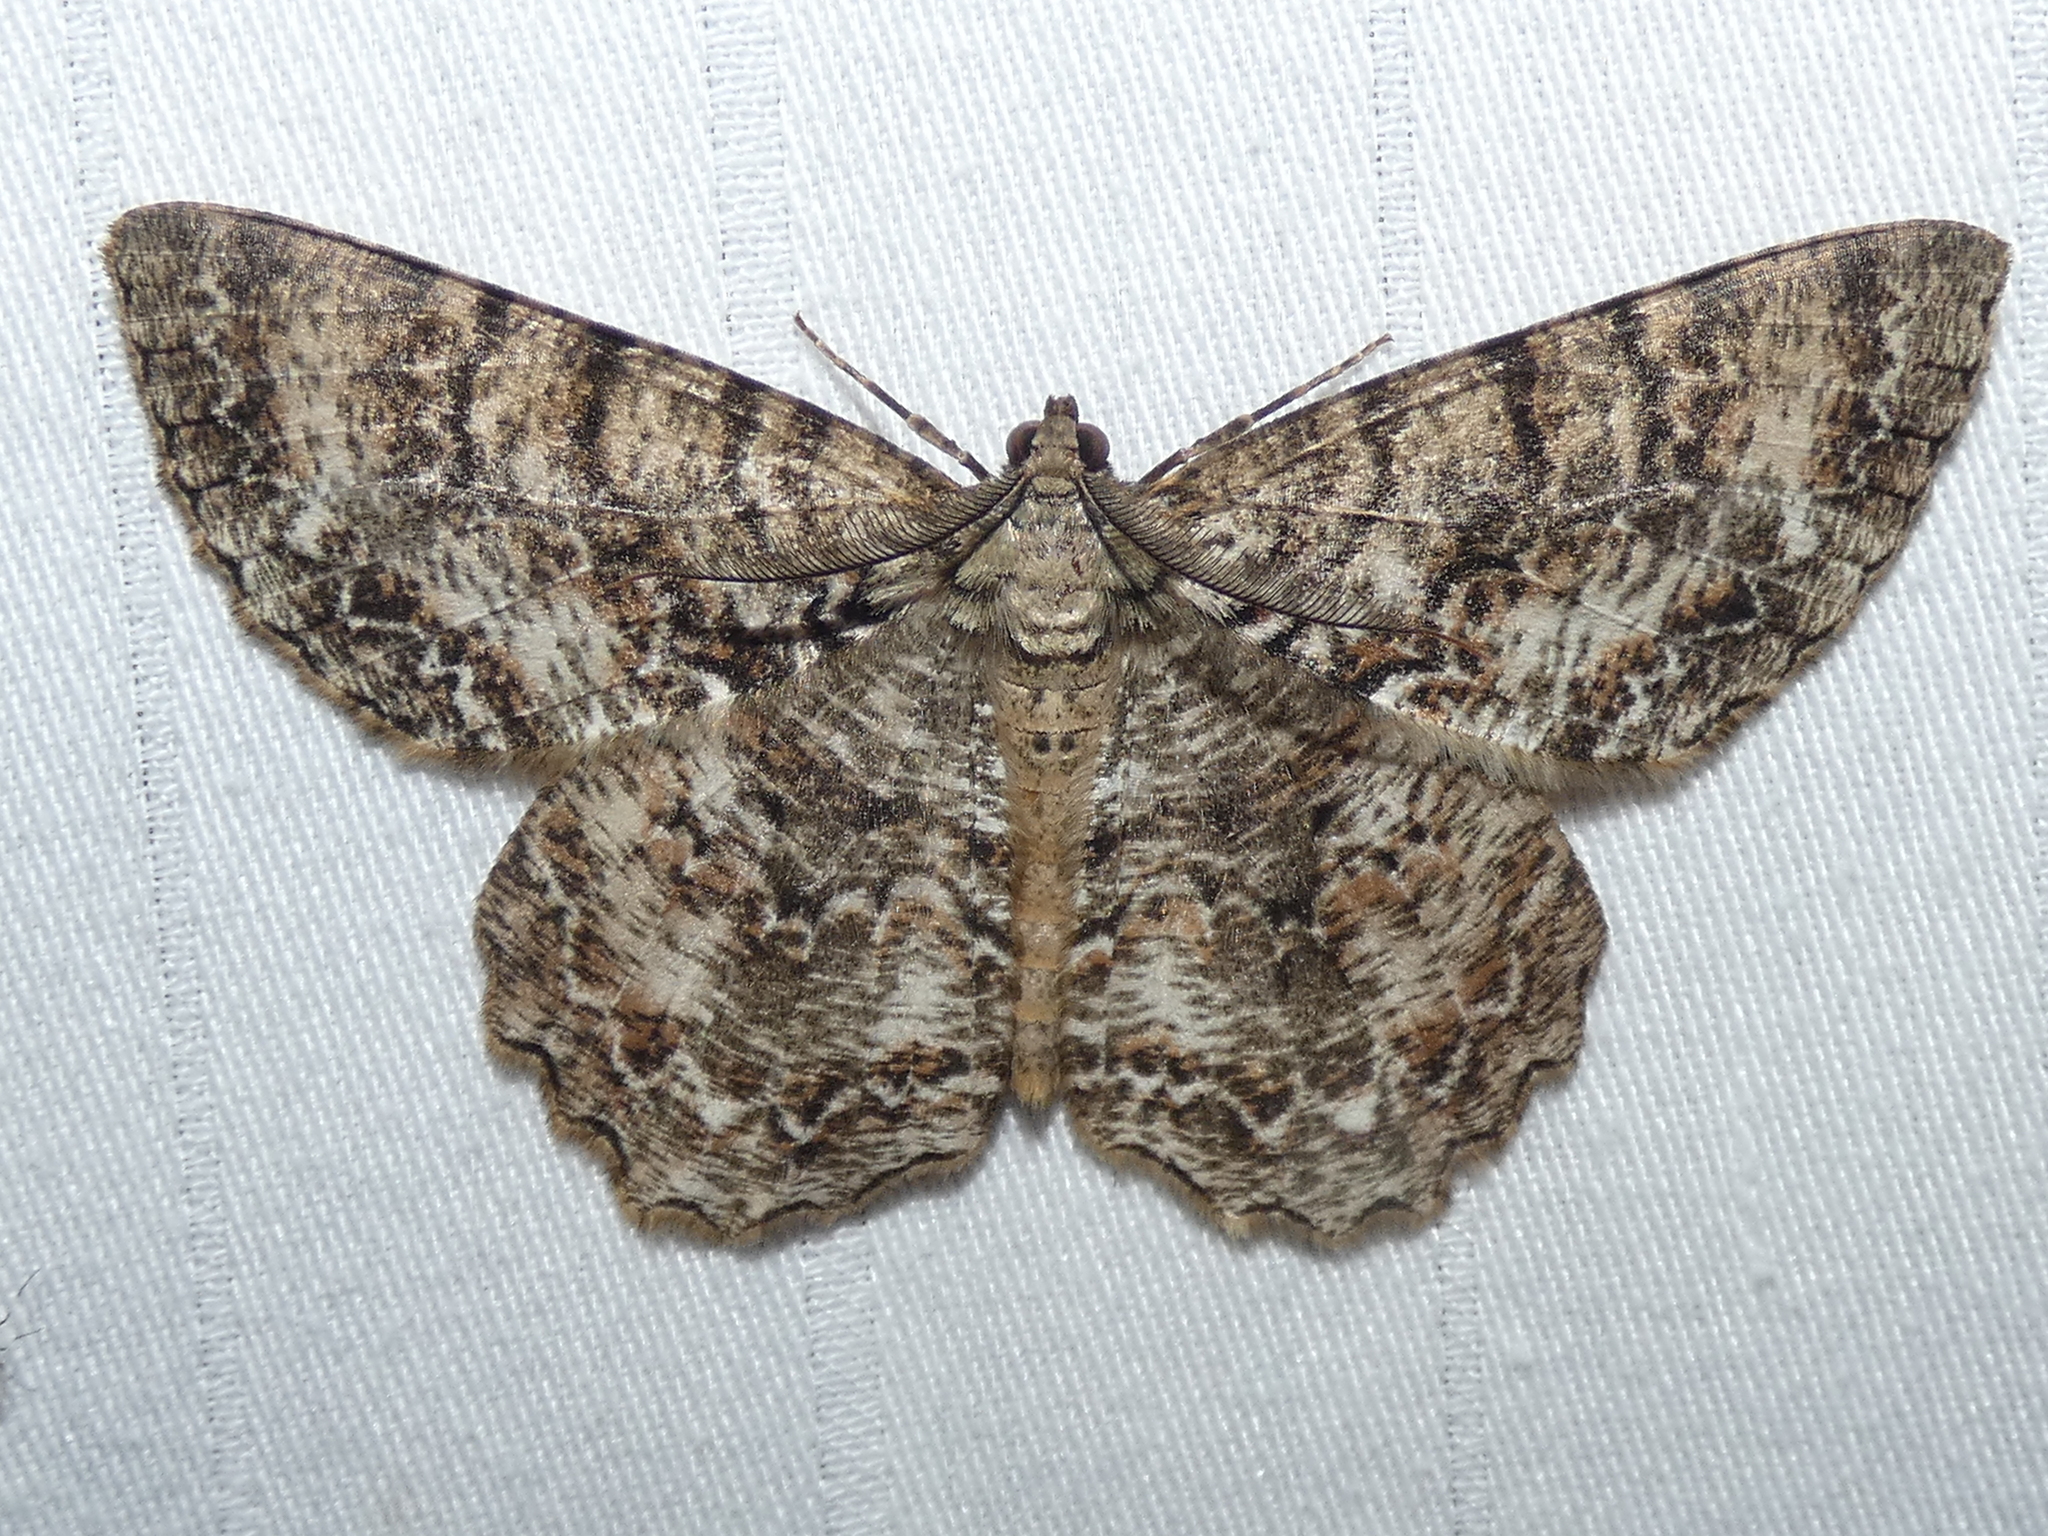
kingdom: Animalia
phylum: Arthropoda
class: Insecta
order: Lepidoptera
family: Geometridae
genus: Epimecis
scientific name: Epimecis hortaria
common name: Tulip-tree beauty
